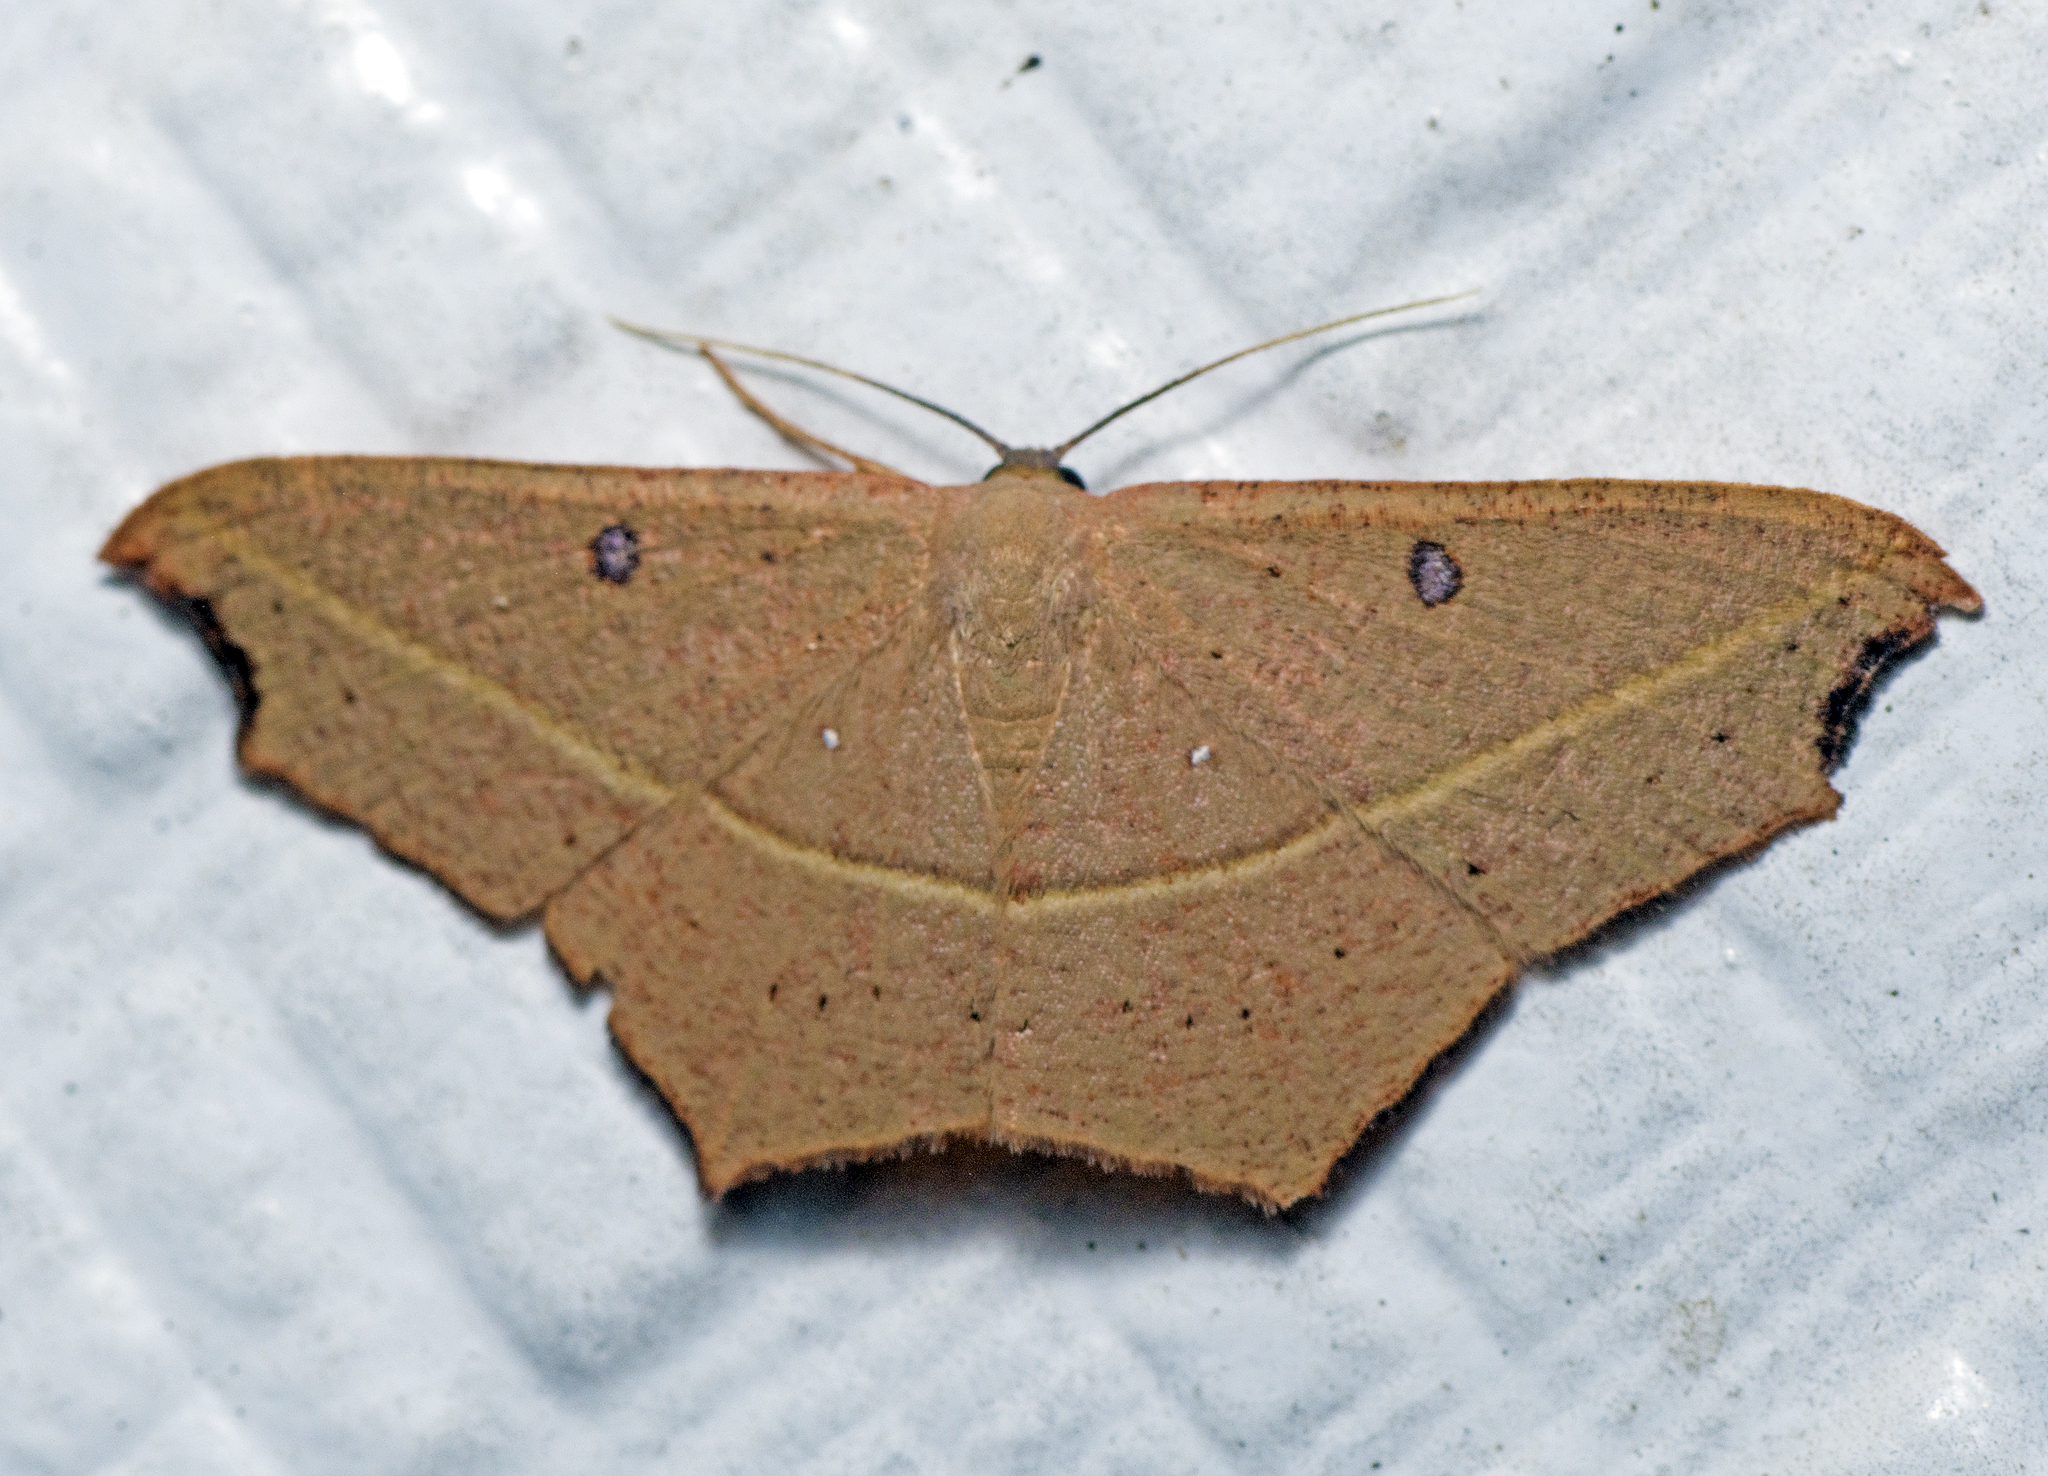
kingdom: Animalia
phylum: Arthropoda
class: Insecta
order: Lepidoptera
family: Geometridae
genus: Traminda
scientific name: Traminda aventiaria
